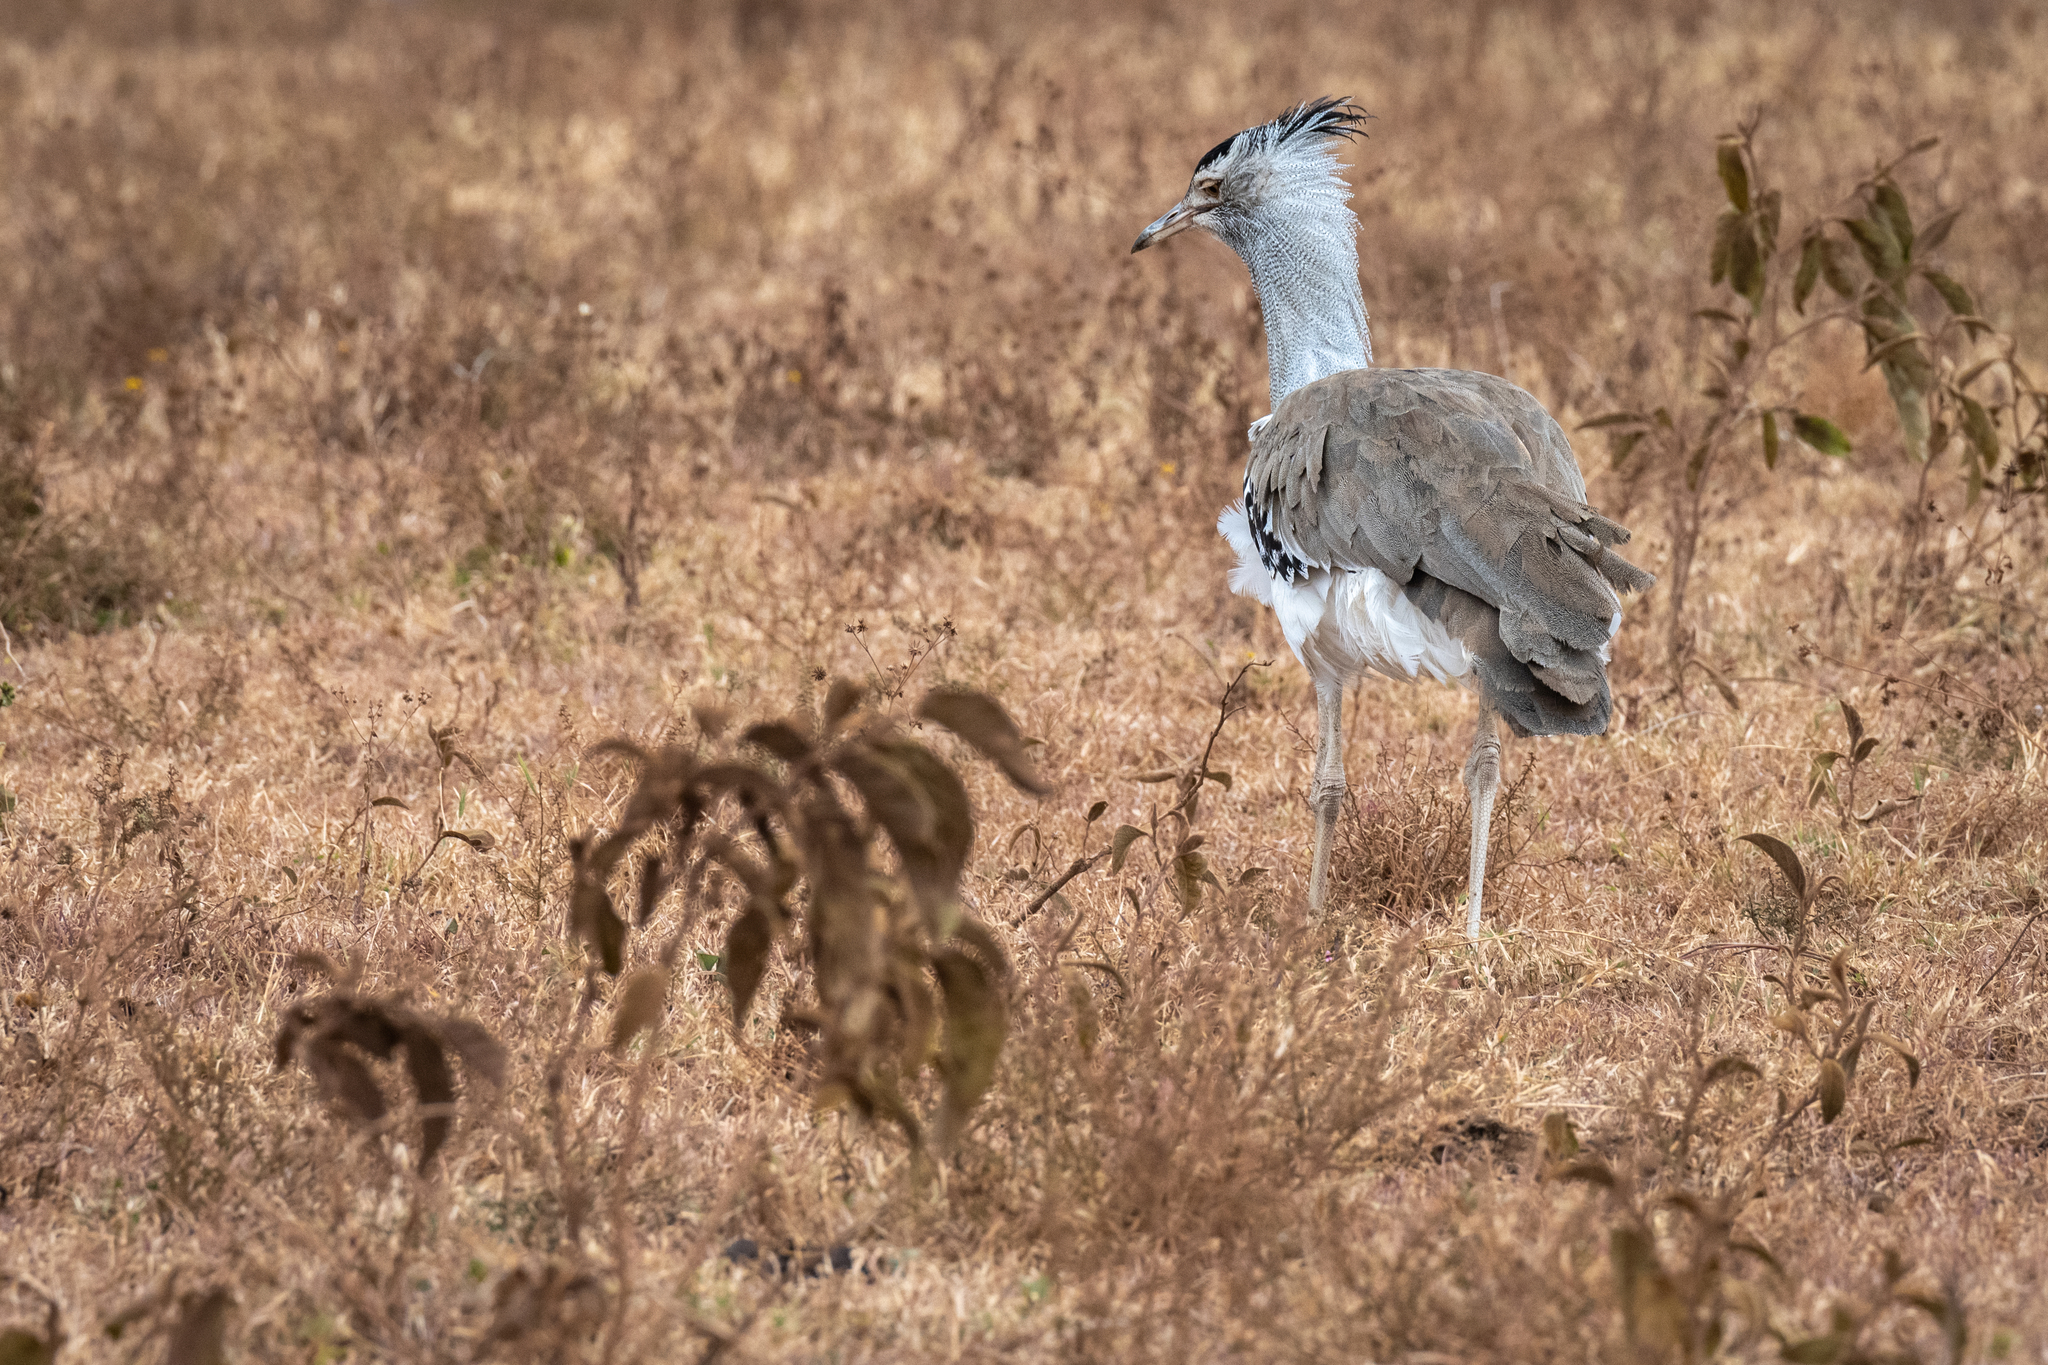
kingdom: Animalia
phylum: Chordata
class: Aves
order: Otidiformes
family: Otididae
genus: Ardeotis
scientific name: Ardeotis kori
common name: Kori bustard
